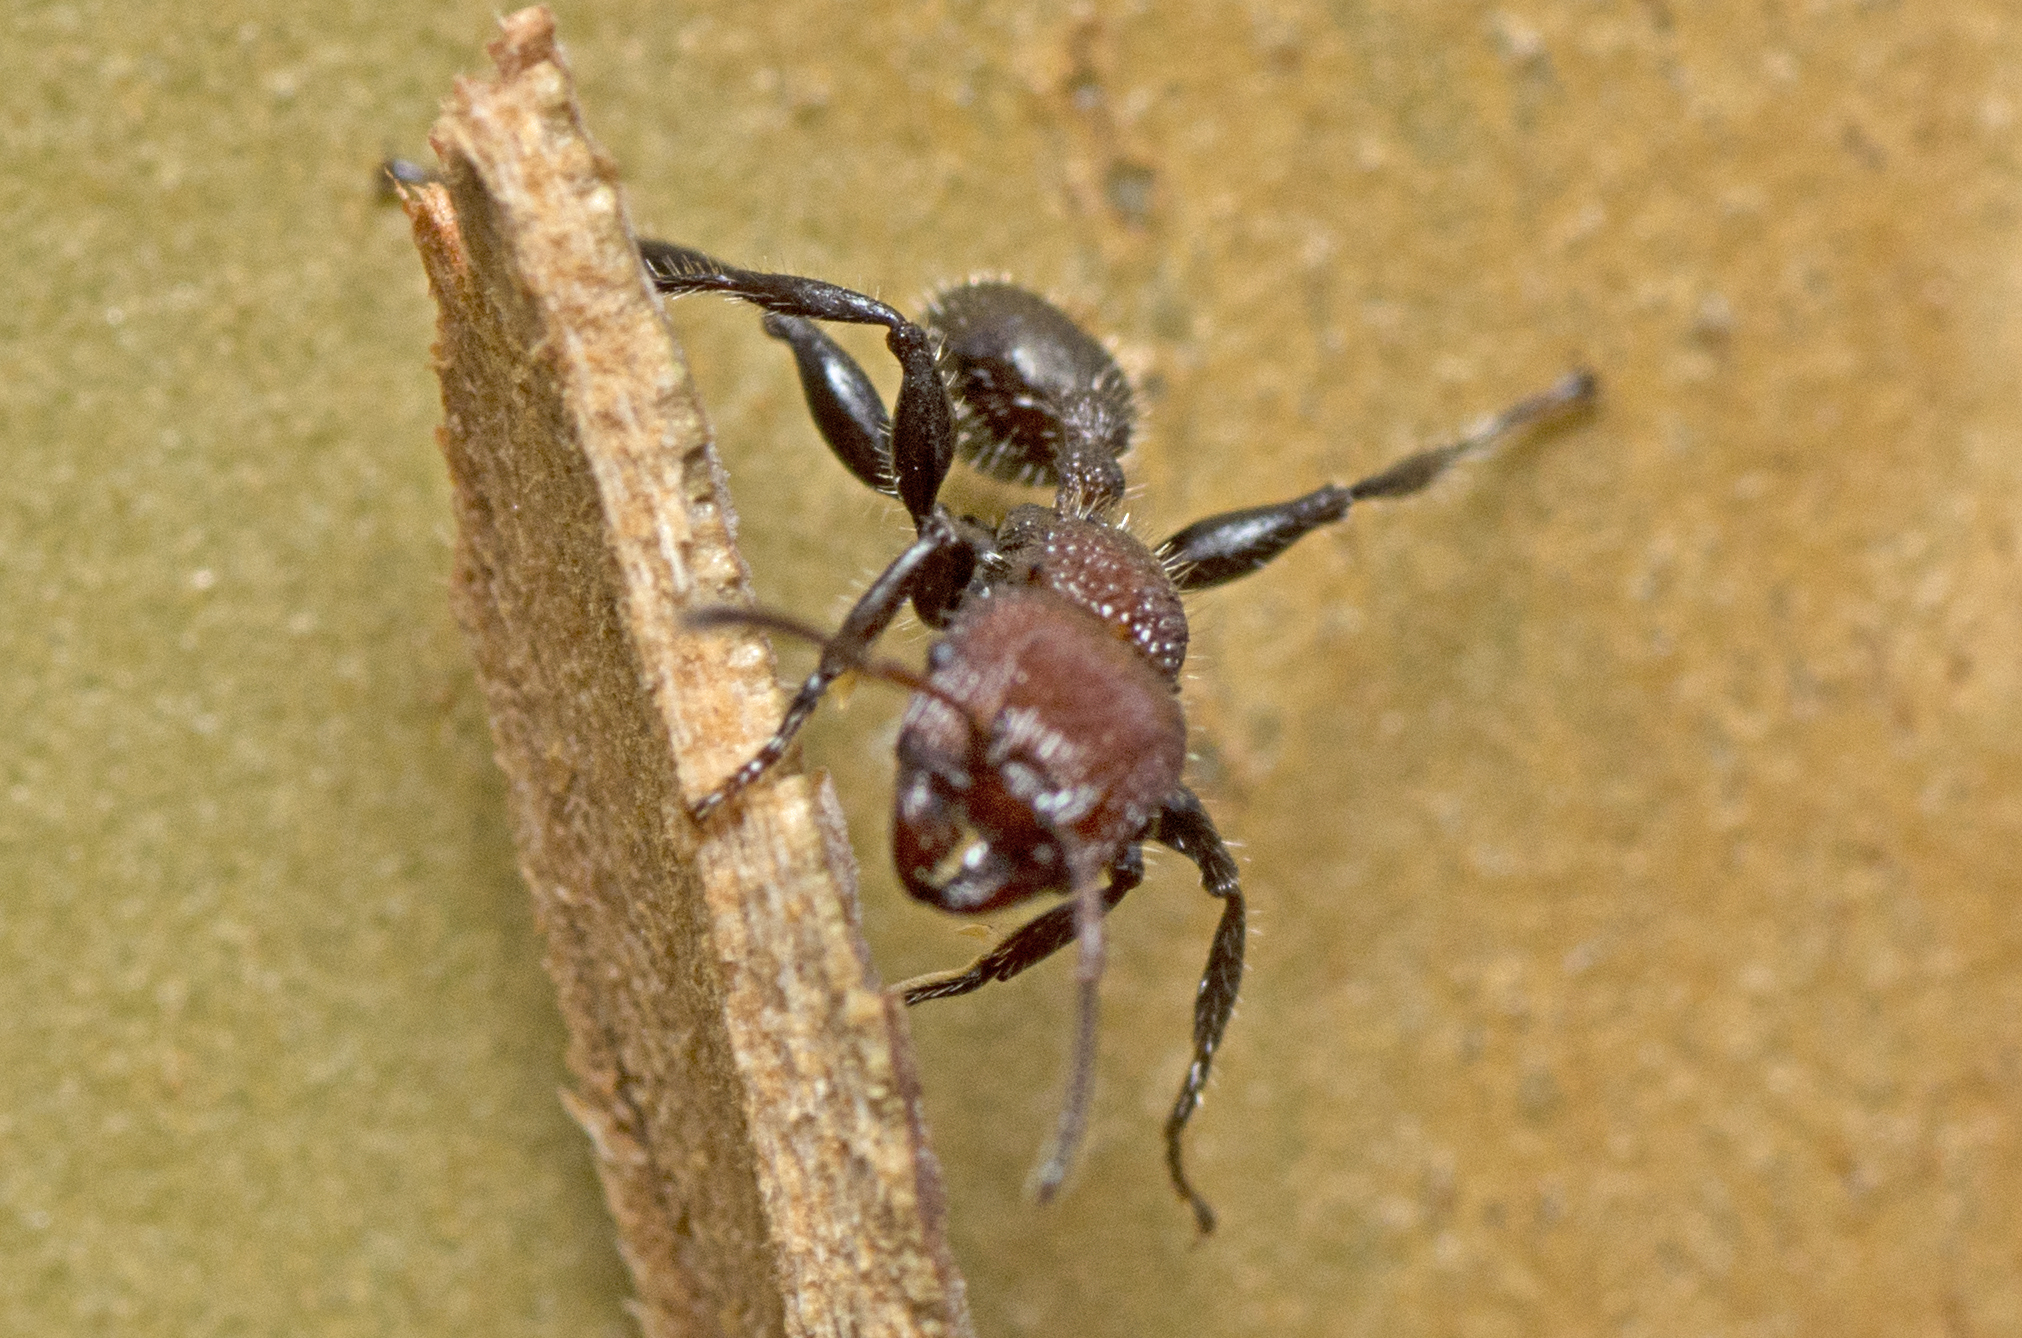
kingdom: Animalia
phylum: Arthropoda
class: Insecta
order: Hymenoptera
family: Formicidae
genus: Podomyrma
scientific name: Podomyrma micans
